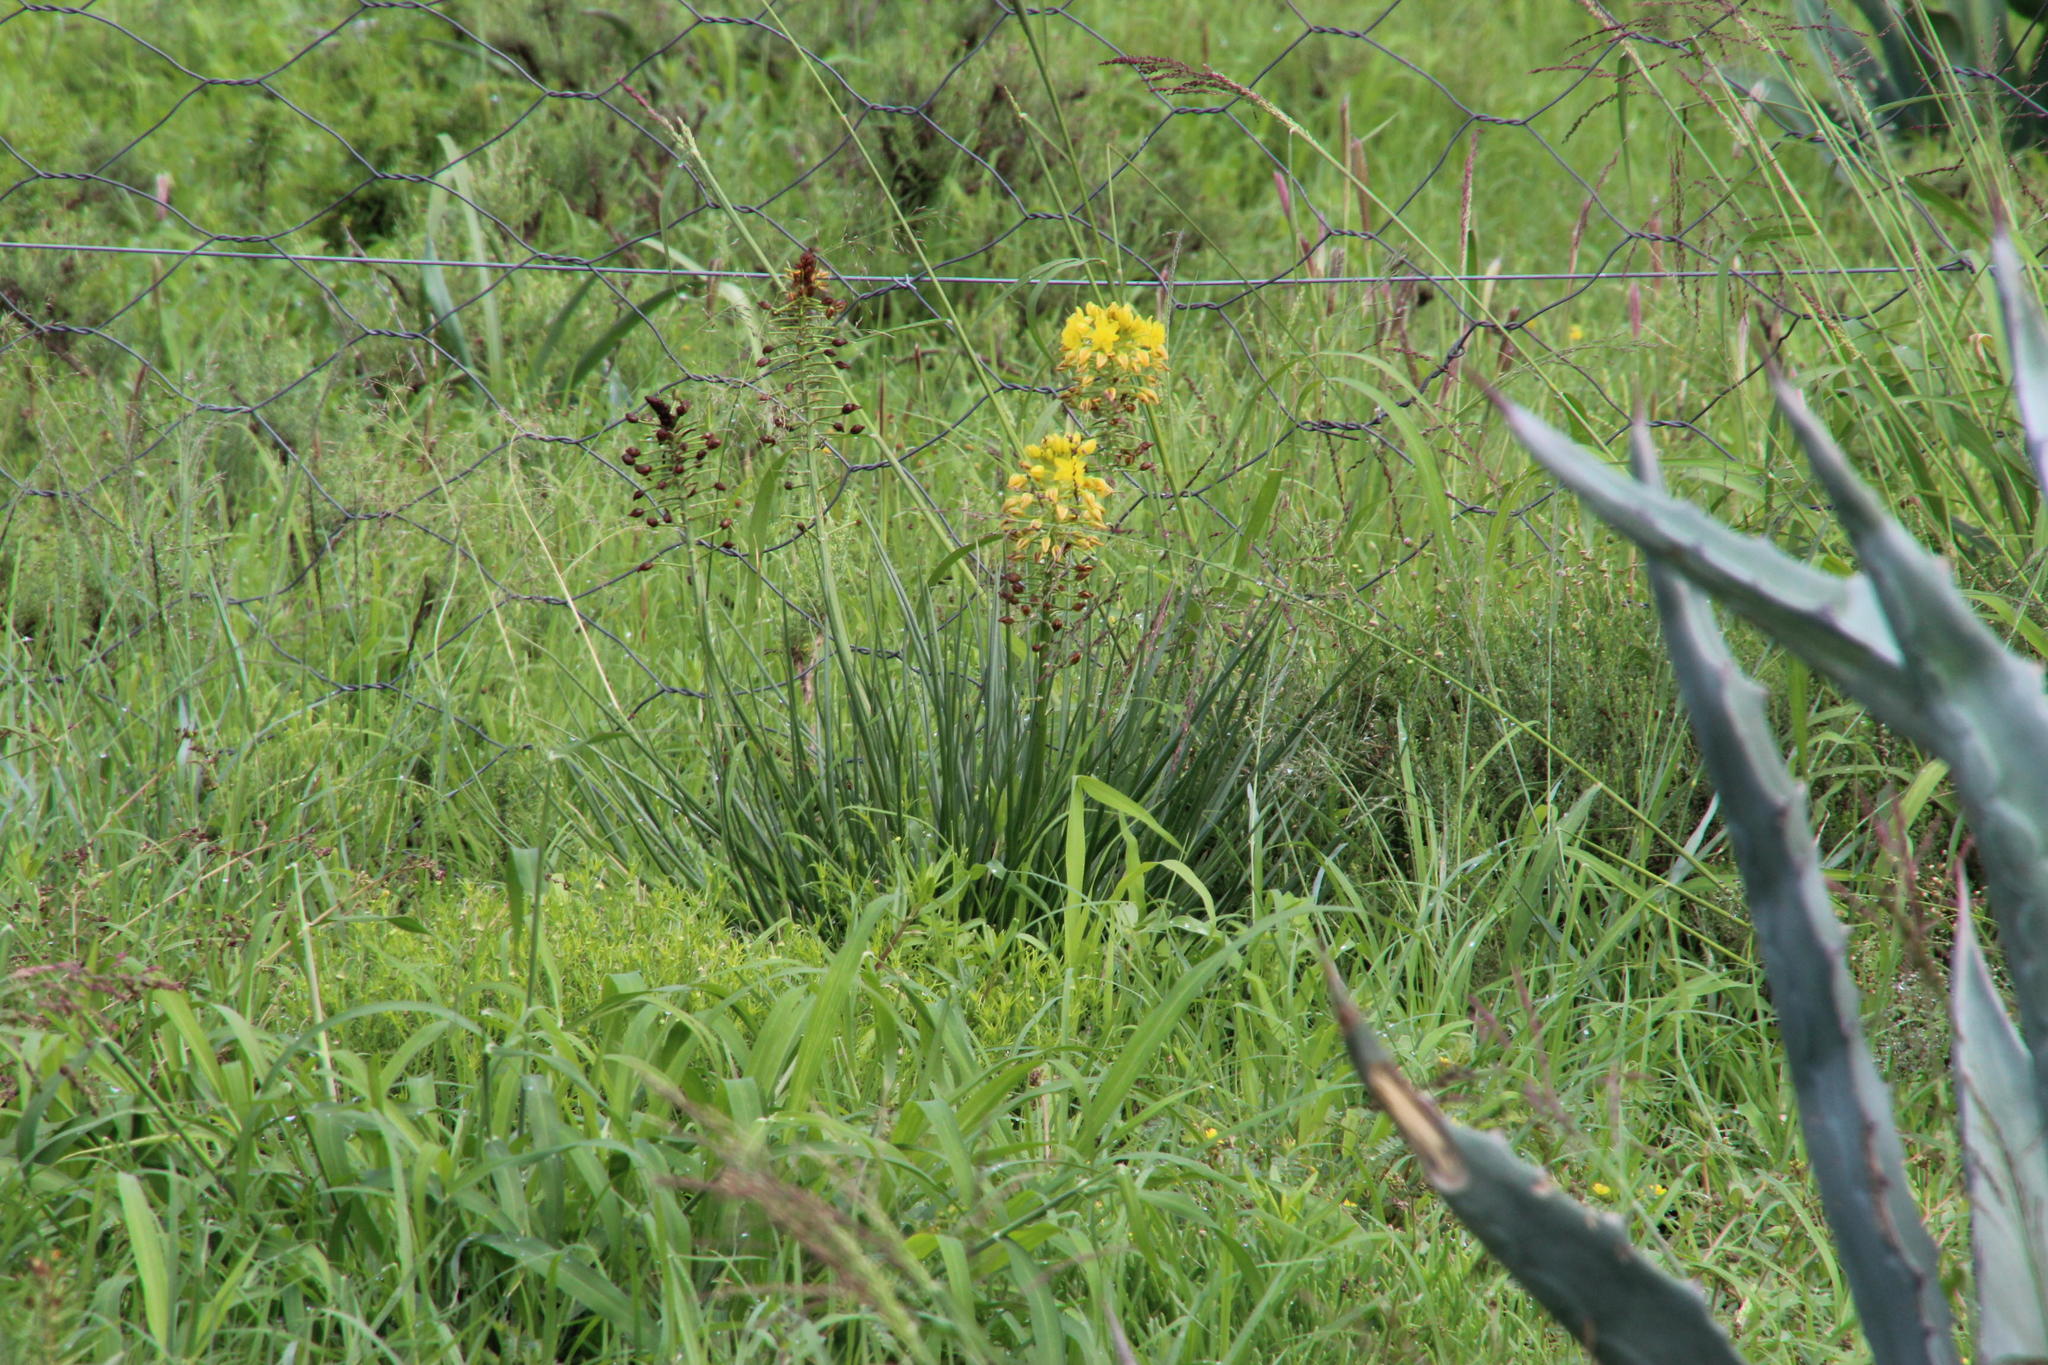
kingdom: Plantae
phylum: Tracheophyta
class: Liliopsida
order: Asparagales
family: Asphodelaceae
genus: Bulbine
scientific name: Bulbine abyssinica
